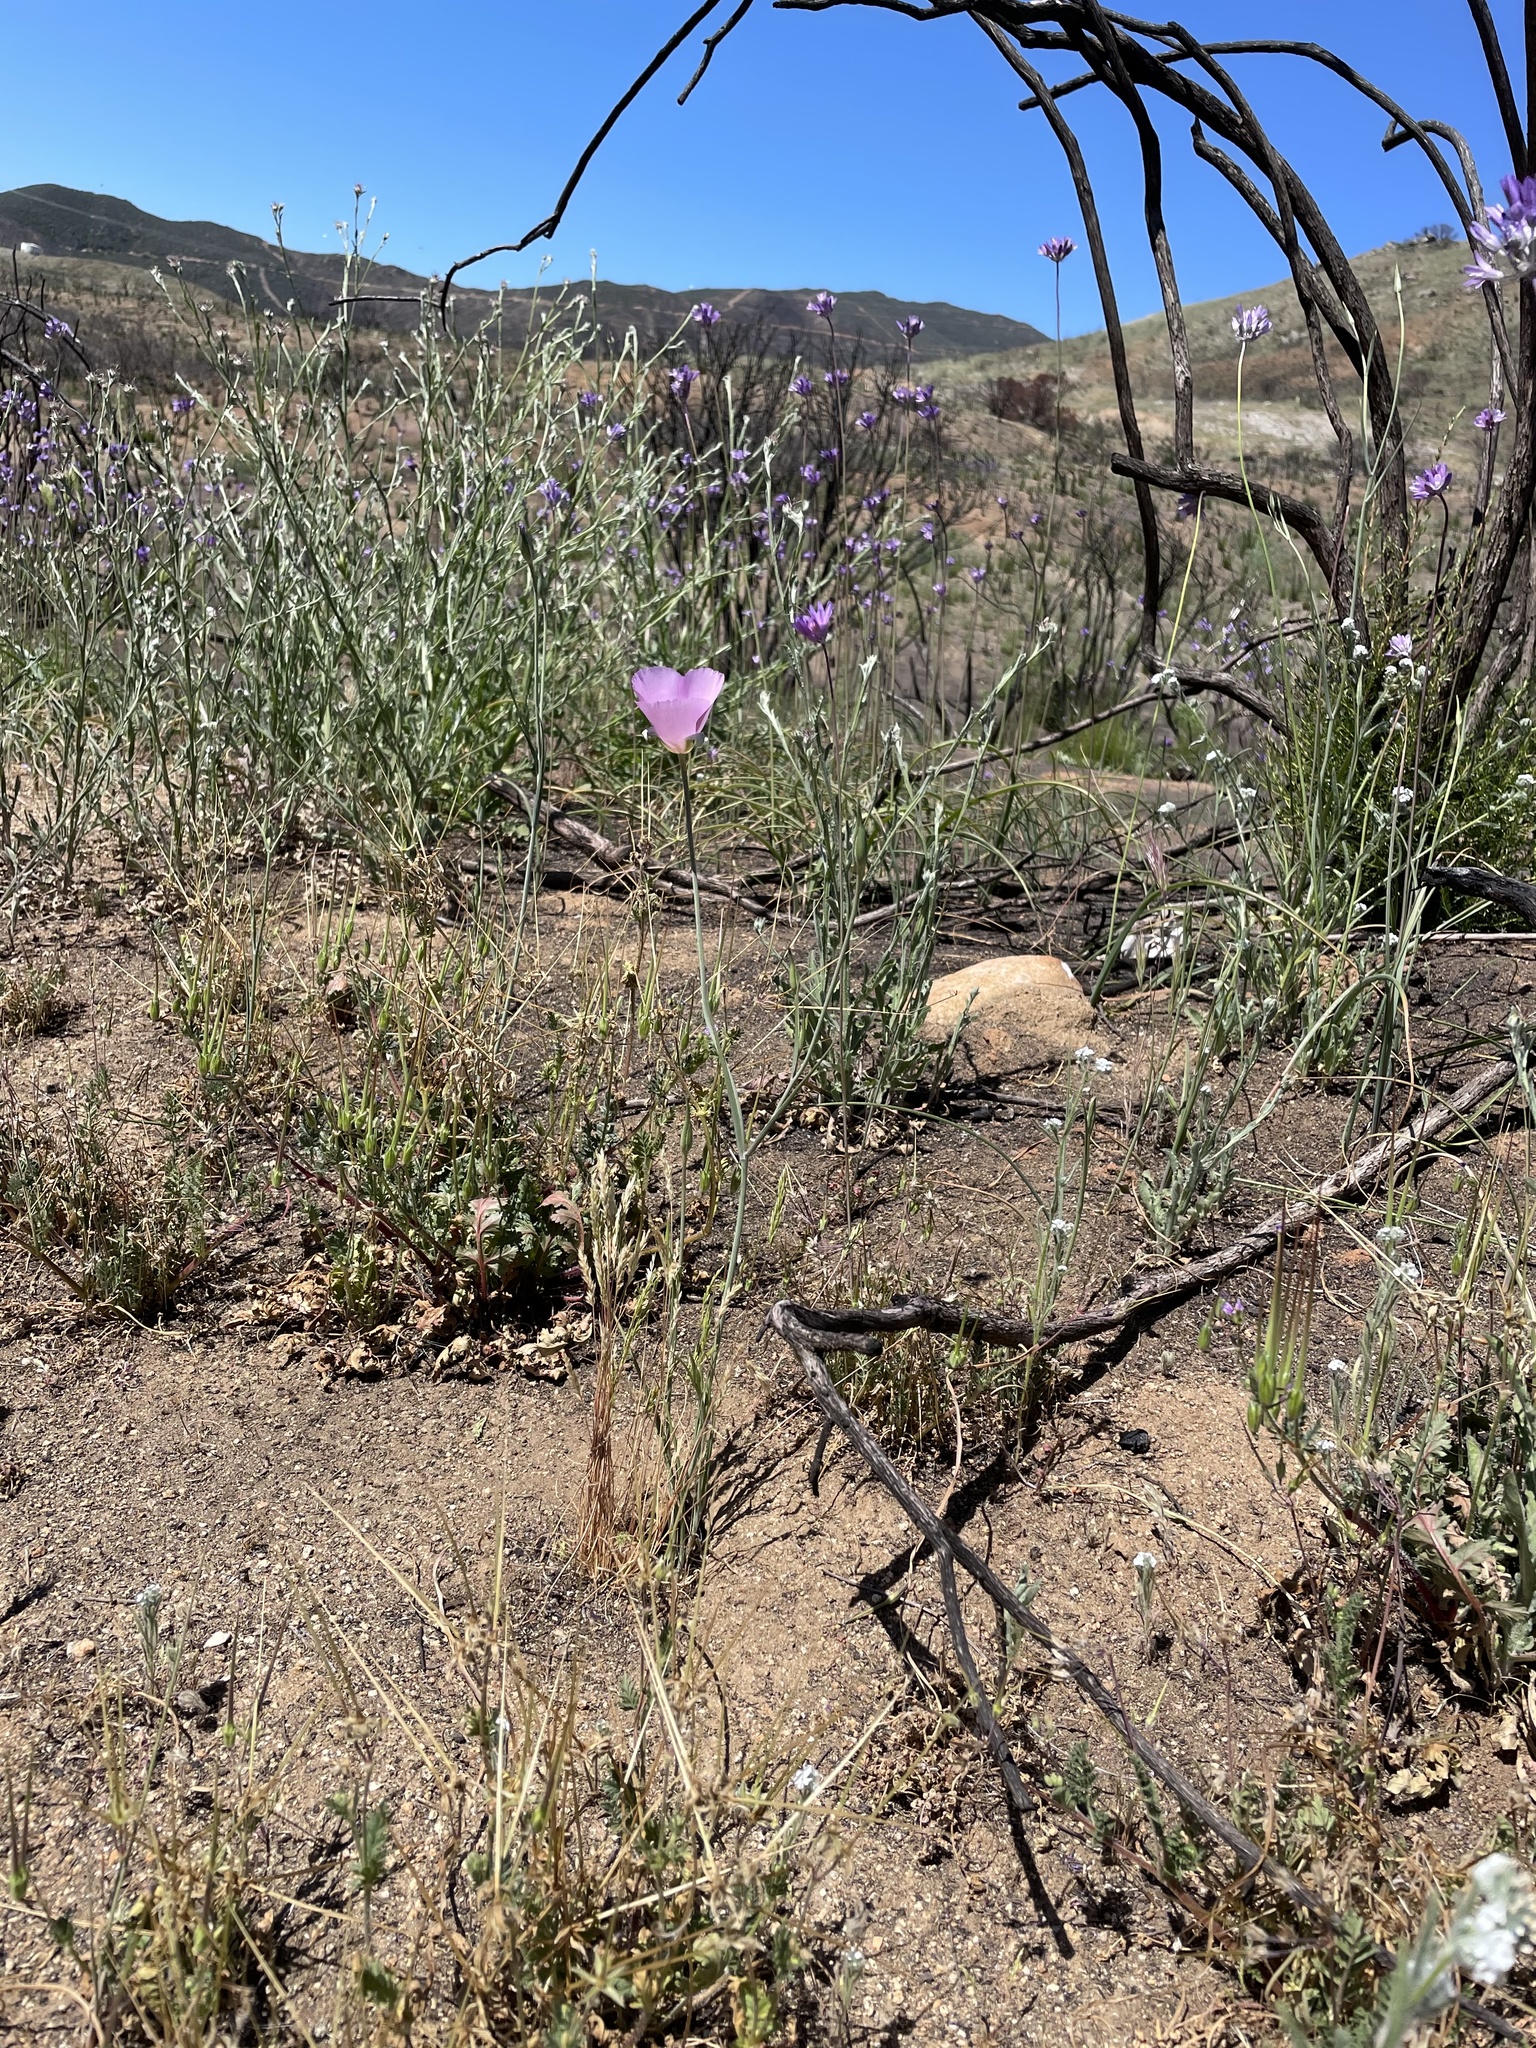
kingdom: Plantae
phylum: Tracheophyta
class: Liliopsida
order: Liliales
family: Liliaceae
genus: Calochortus
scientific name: Calochortus splendens
